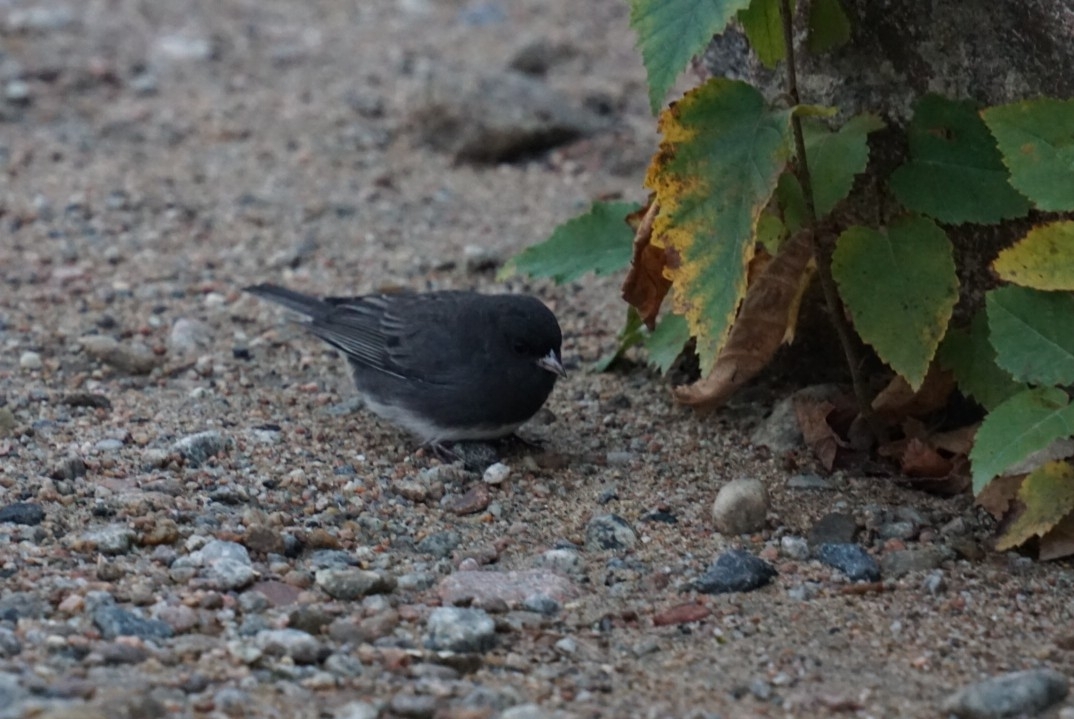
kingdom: Animalia
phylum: Chordata
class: Aves
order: Passeriformes
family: Passerellidae
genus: Junco
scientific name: Junco hyemalis
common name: Dark-eyed junco
